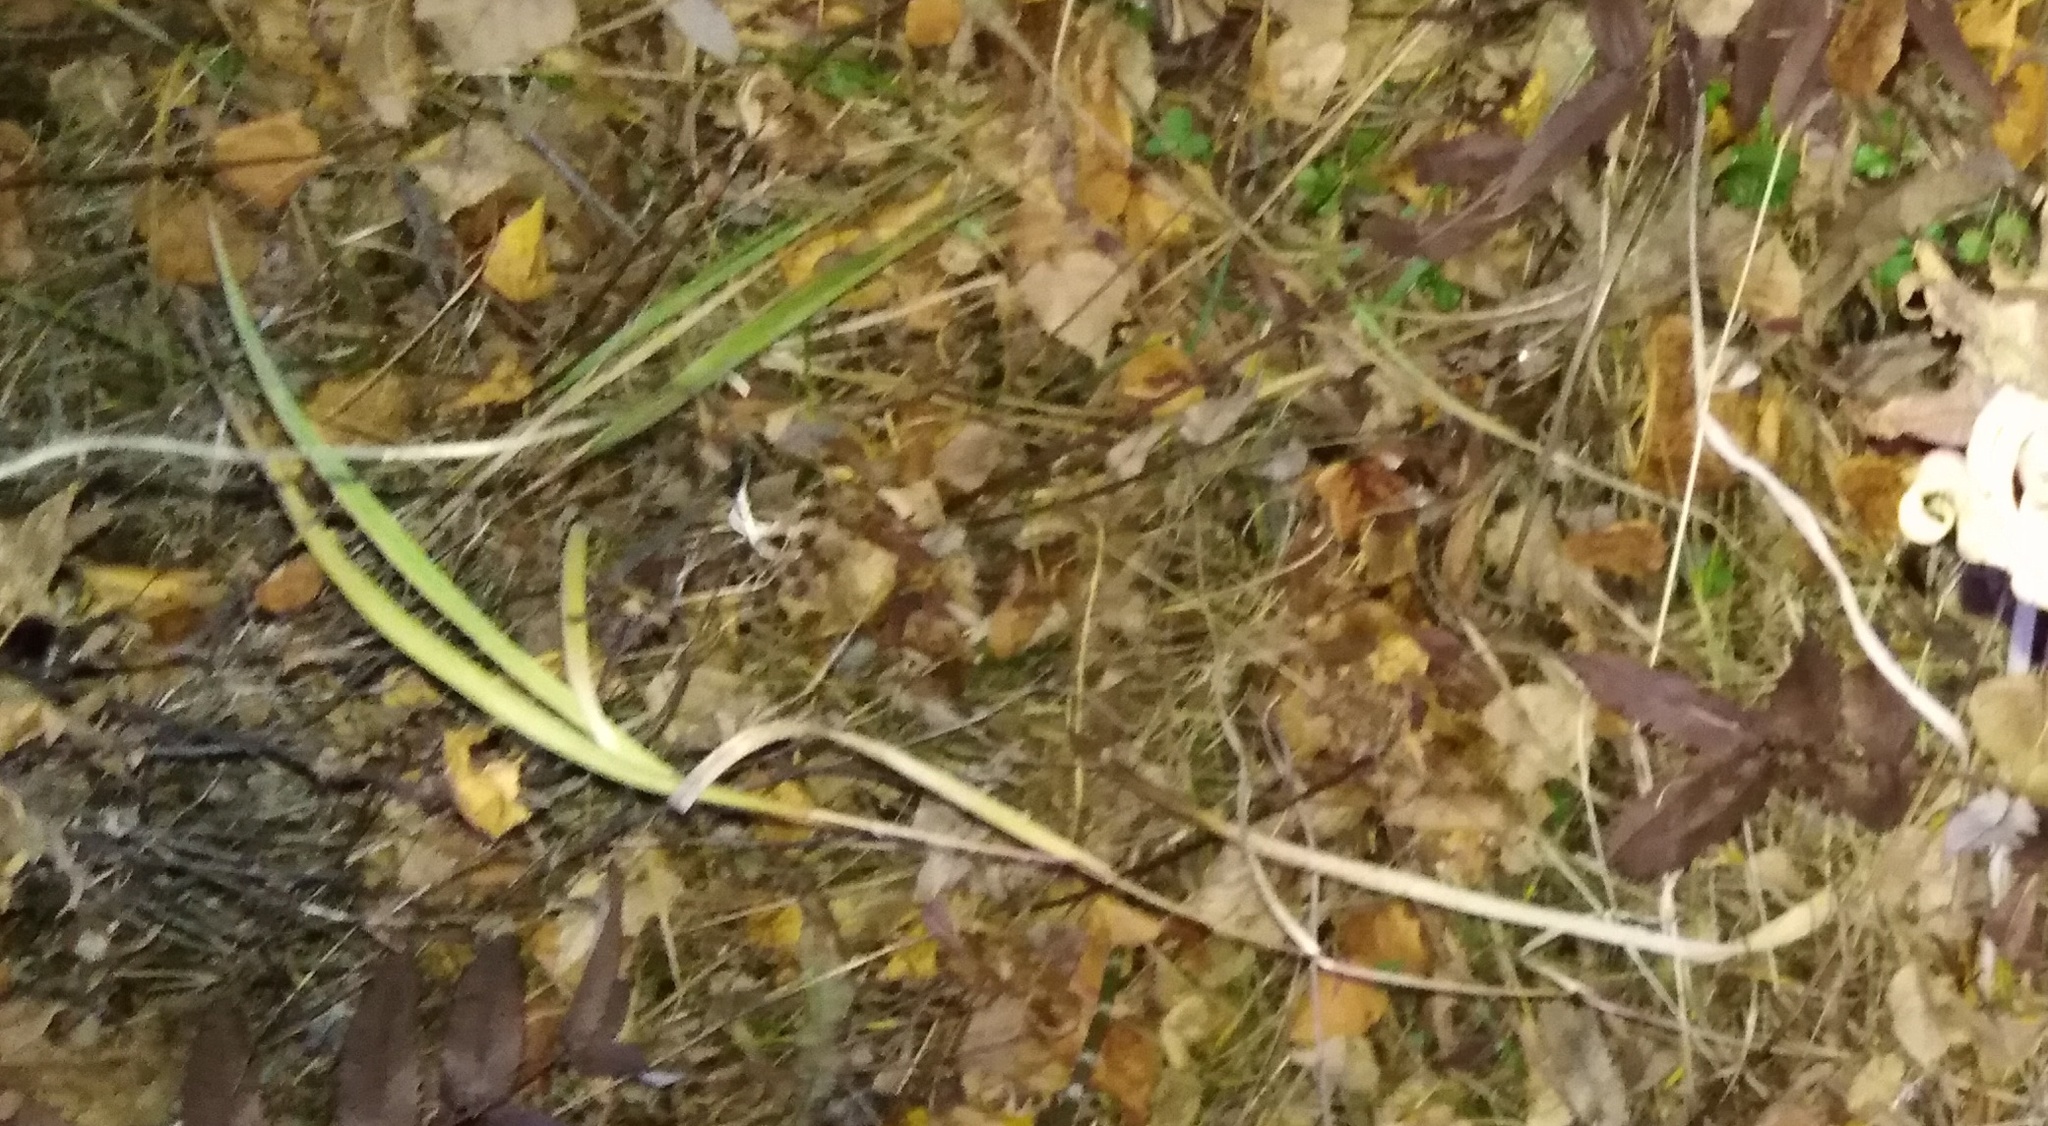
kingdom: Plantae
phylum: Tracheophyta
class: Liliopsida
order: Asparagales
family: Iridaceae
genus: Iris
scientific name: Iris setosa
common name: Arctic blue flag
